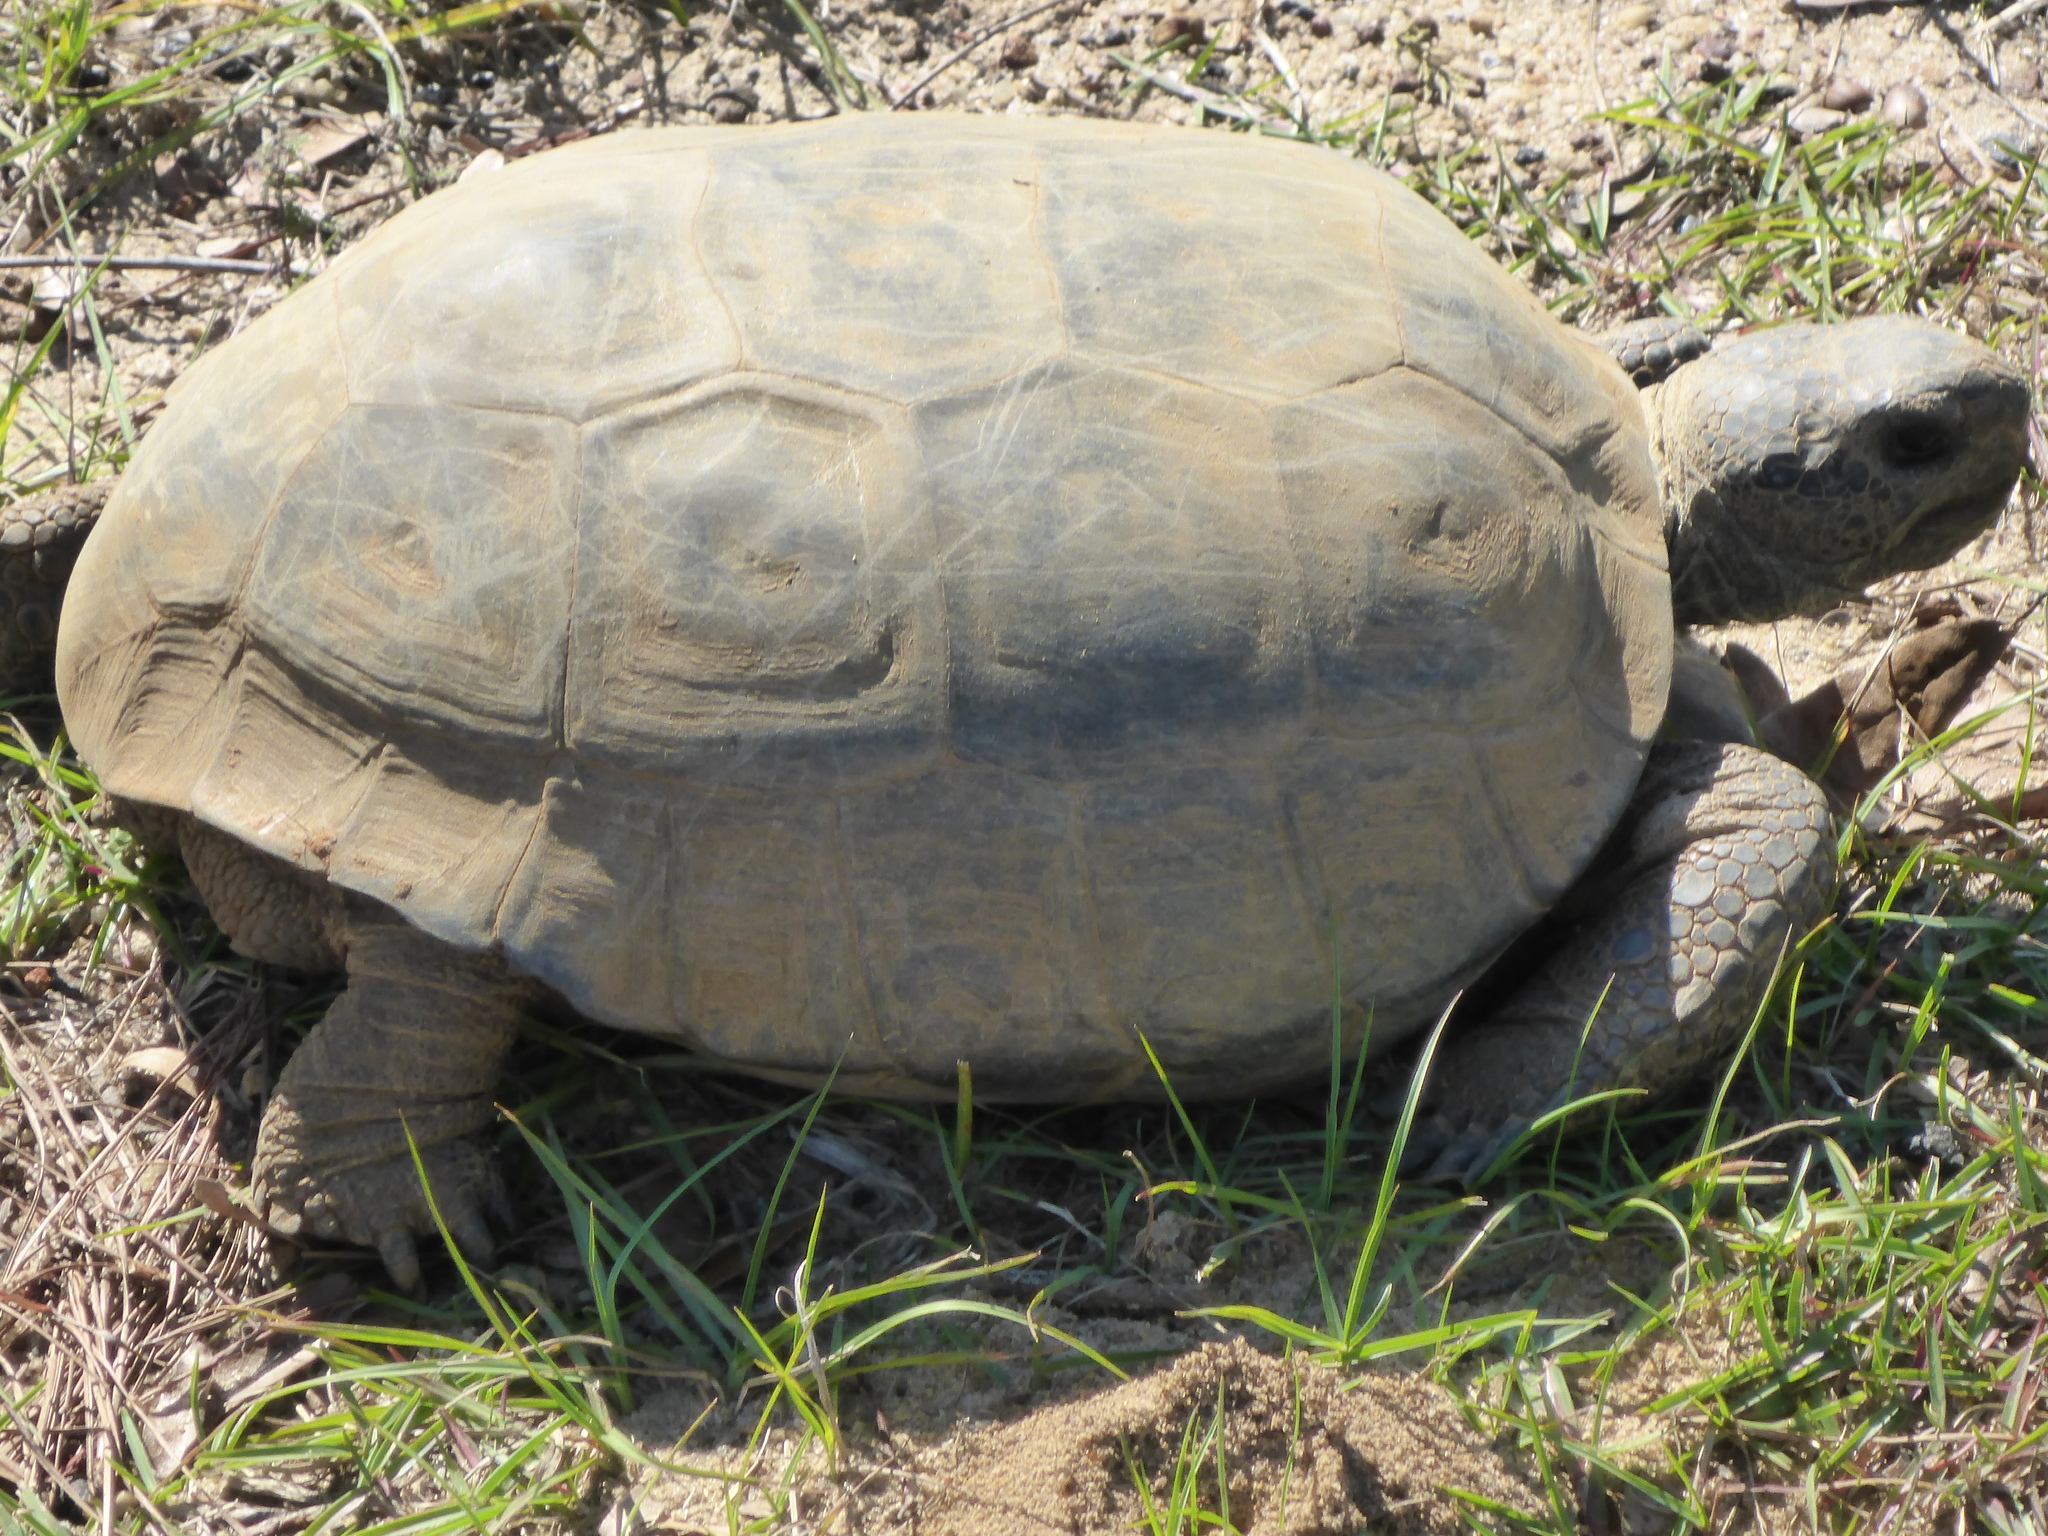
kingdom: Animalia
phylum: Chordata
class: Testudines
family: Testudinidae
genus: Gopherus
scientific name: Gopherus polyphemus
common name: Florida gopher tortoise
